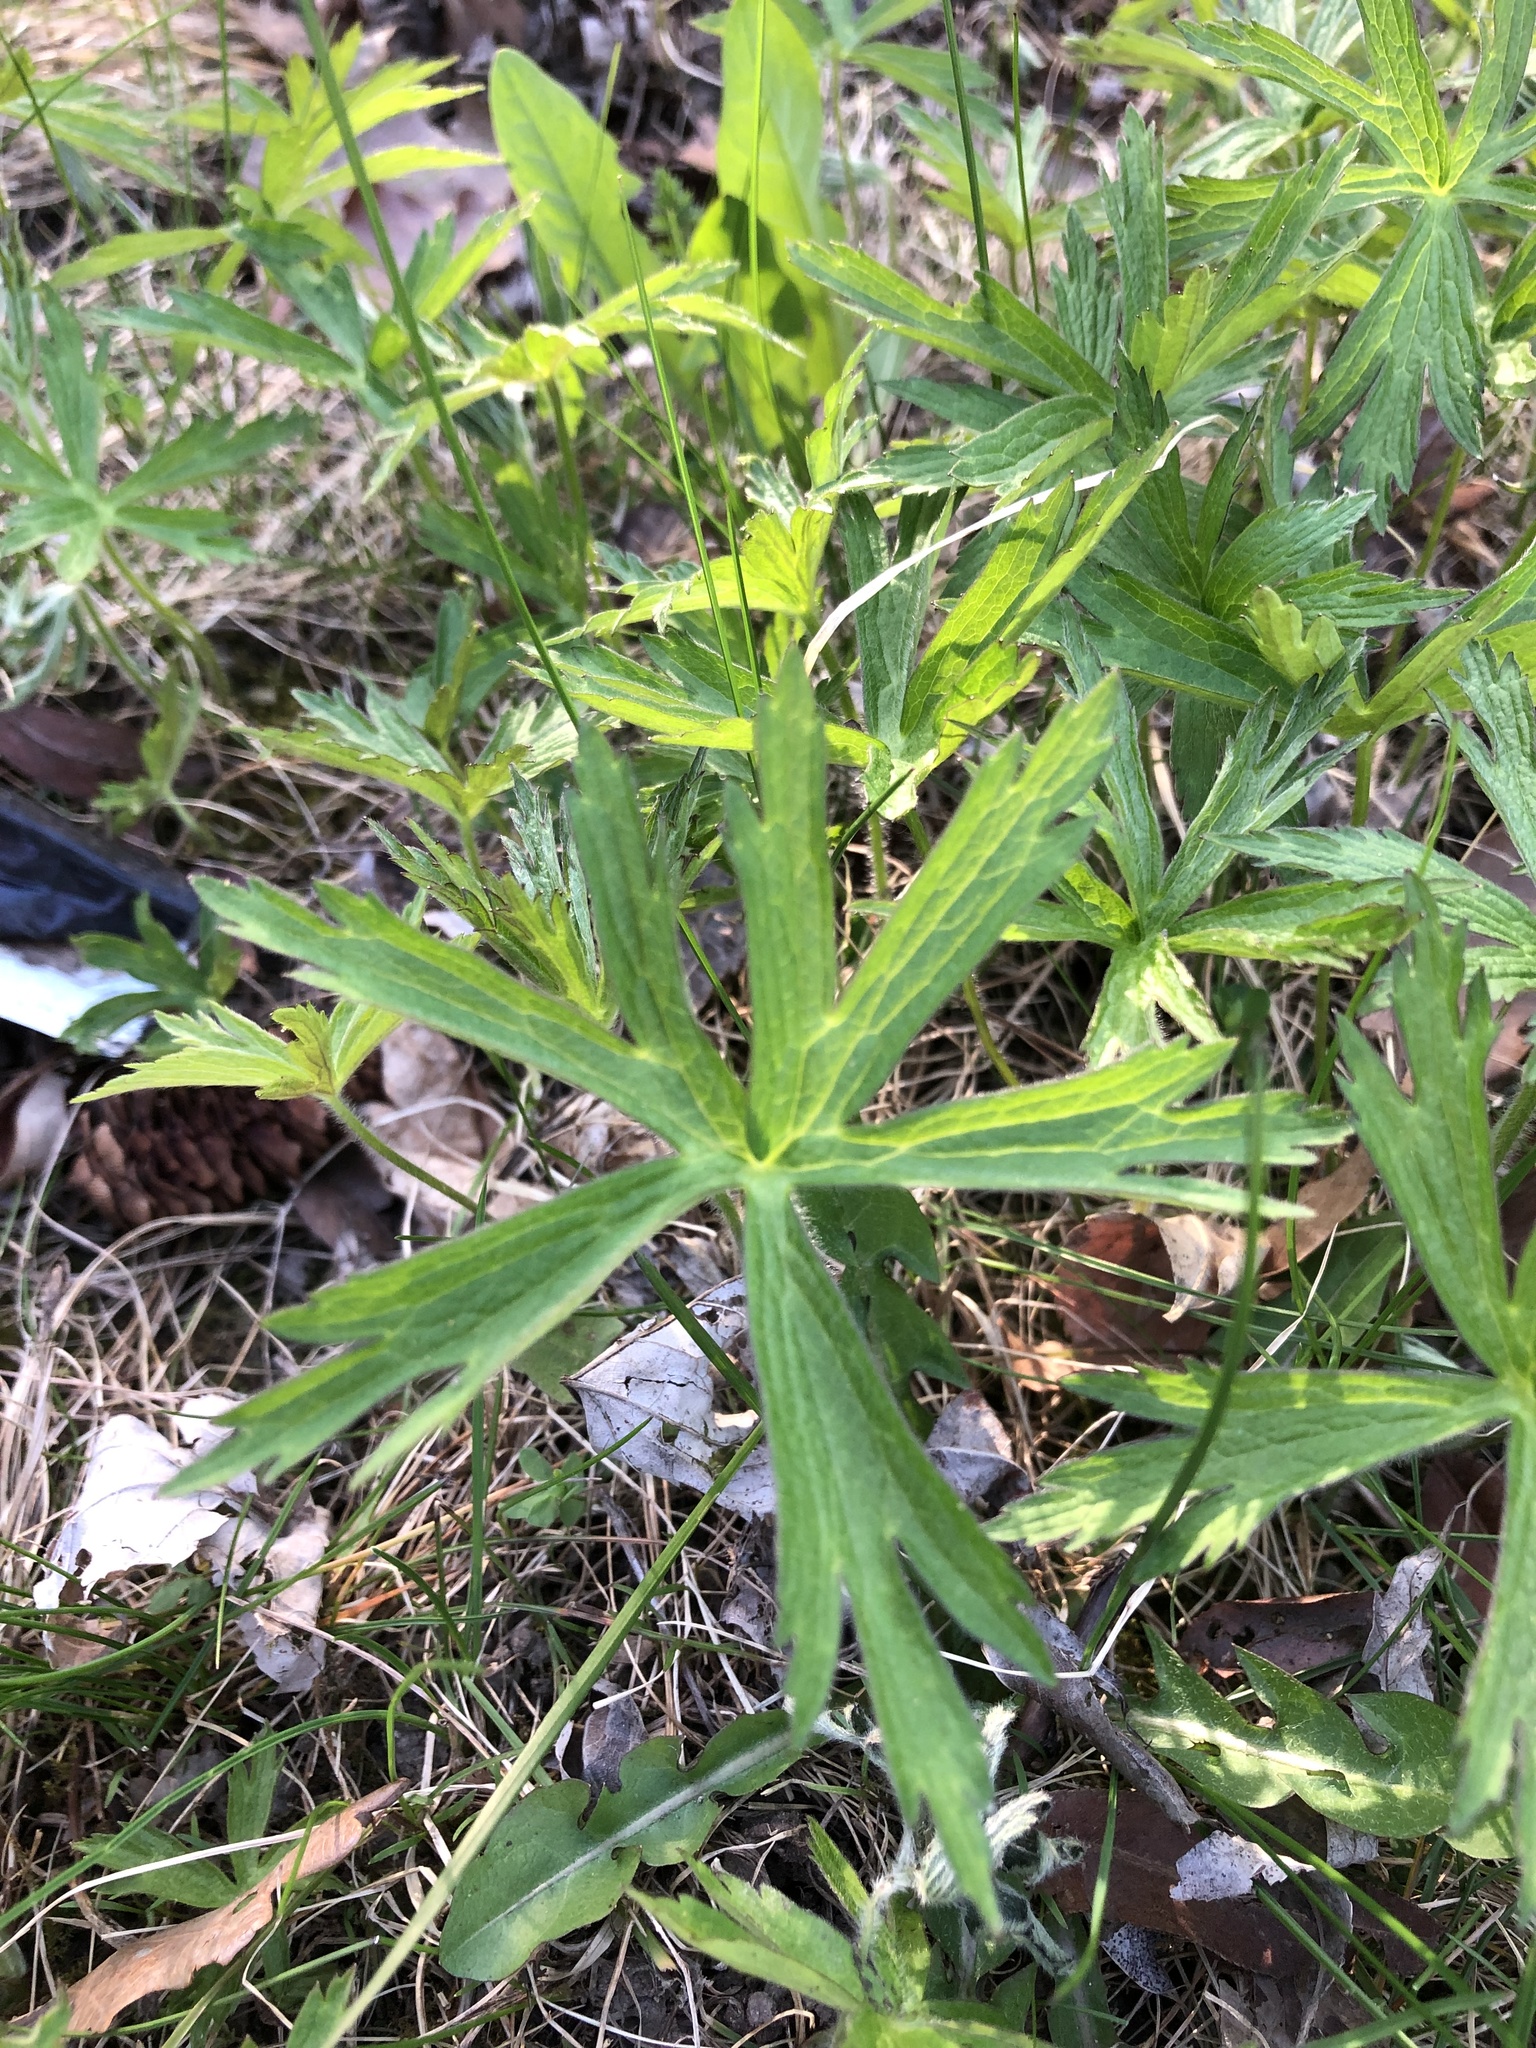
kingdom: Plantae
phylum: Tracheophyta
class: Magnoliopsida
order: Ranunculales
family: Ranunculaceae
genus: Anemonastrum
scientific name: Anemonastrum canadense
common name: Canada anemone
